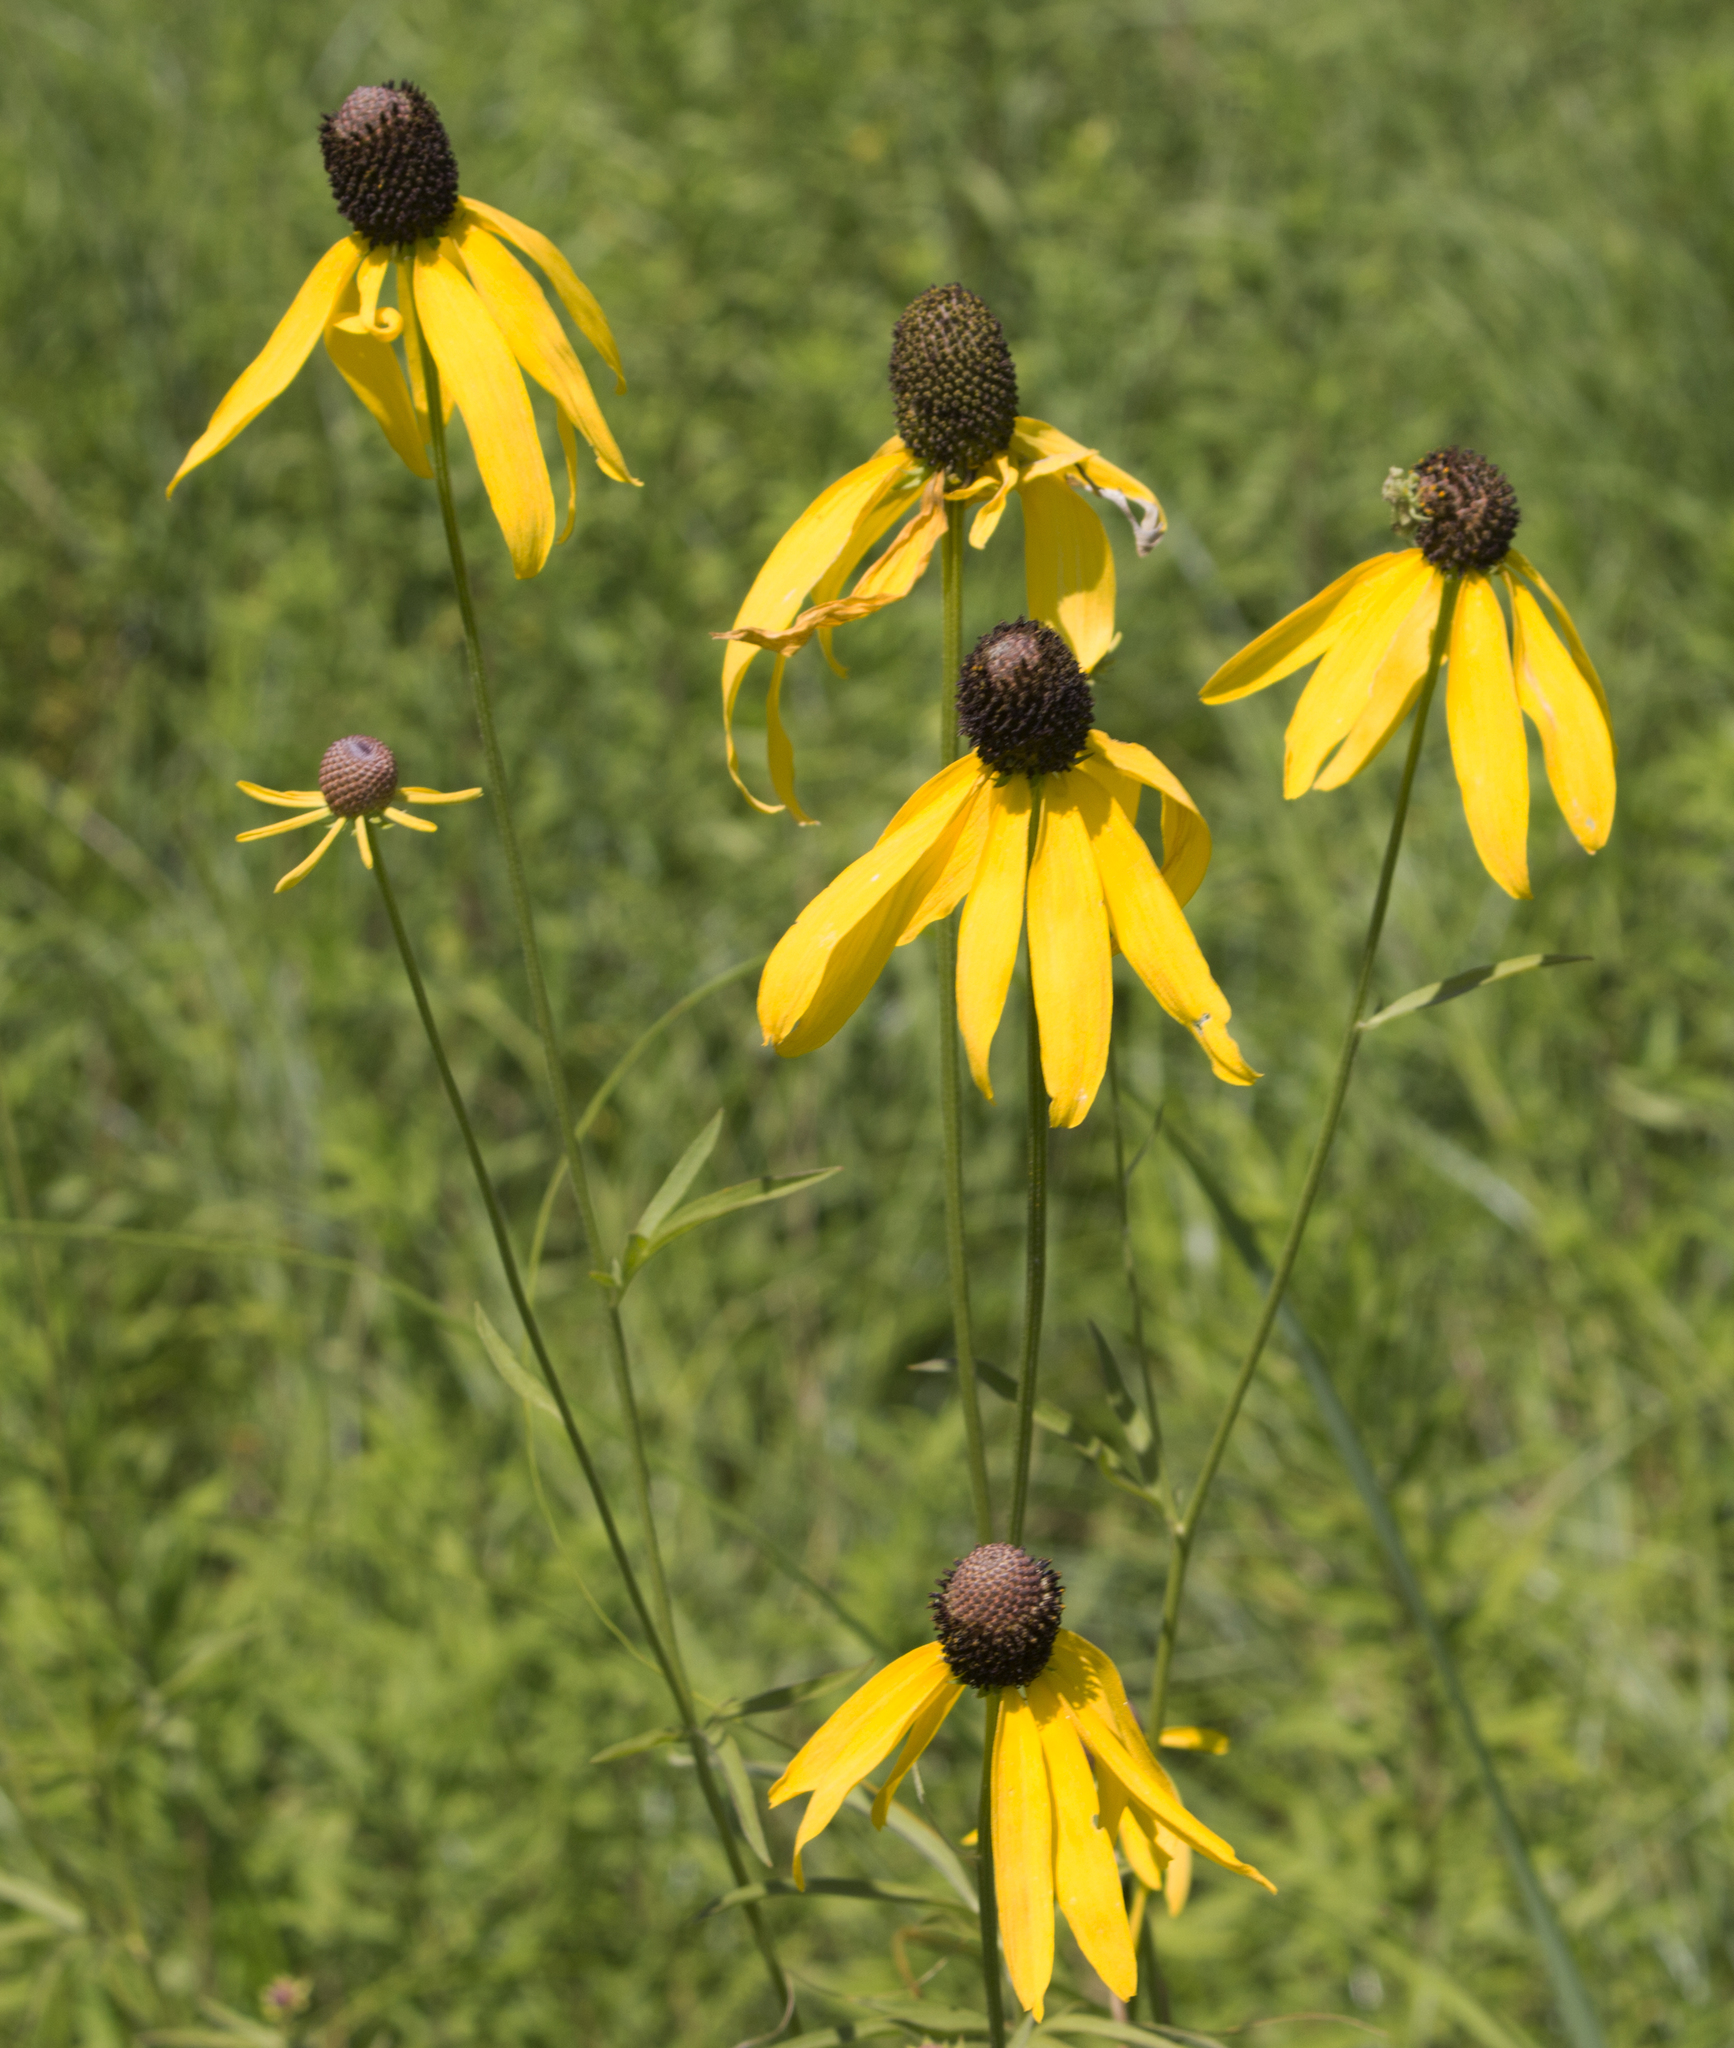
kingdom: Plantae
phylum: Tracheophyta
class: Magnoliopsida
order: Asterales
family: Asteraceae
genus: Ratibida
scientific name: Ratibida pinnata
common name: Drooping prairie-coneflower
